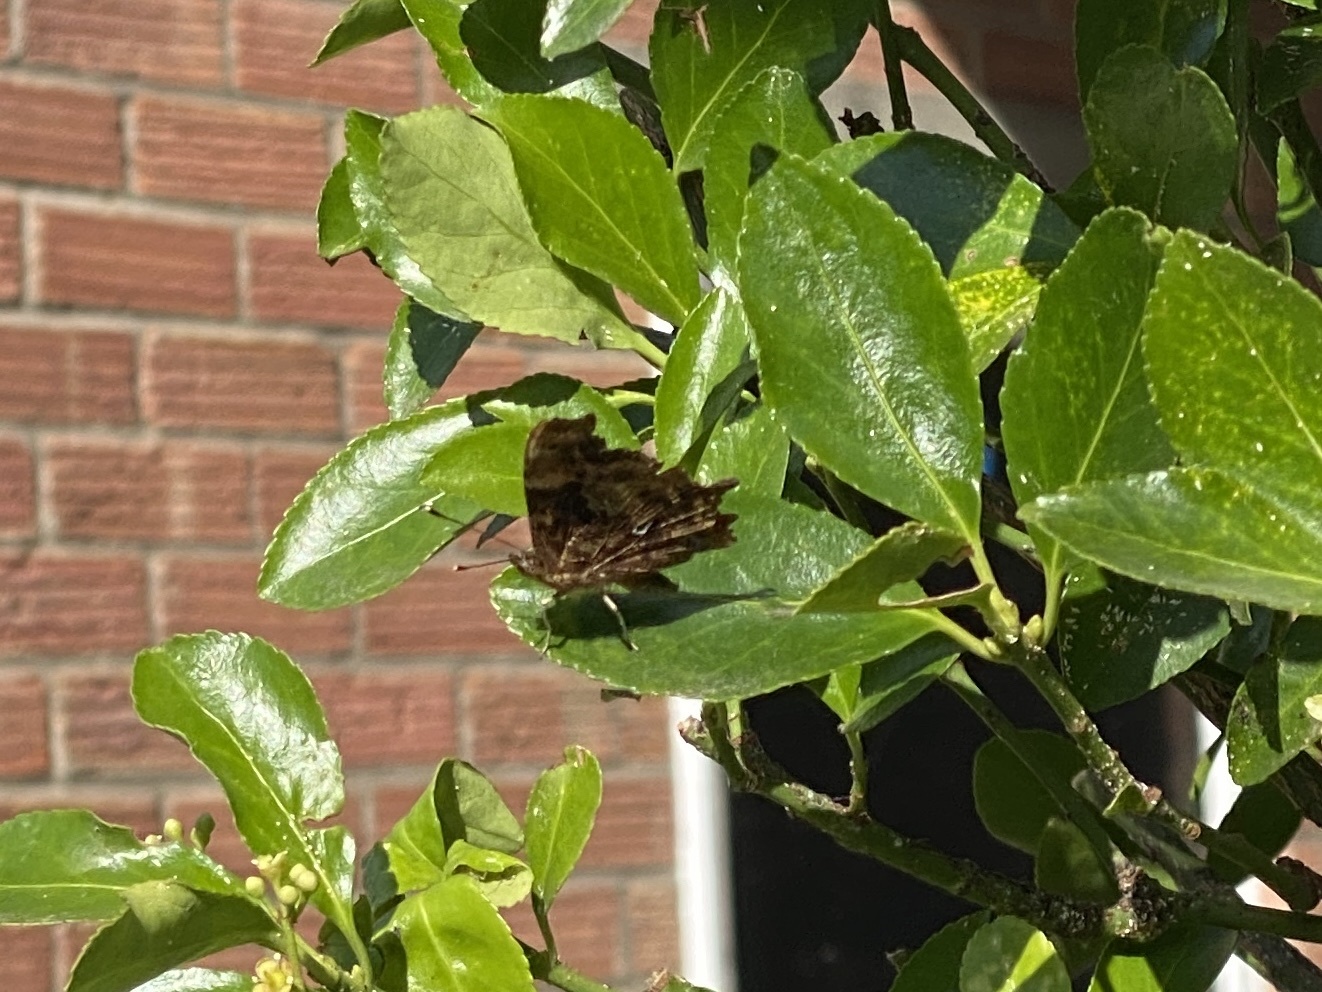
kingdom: Animalia
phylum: Arthropoda
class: Insecta
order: Lepidoptera
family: Nymphalidae
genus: Polygonia
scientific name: Polygonia c-album
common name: Comma
